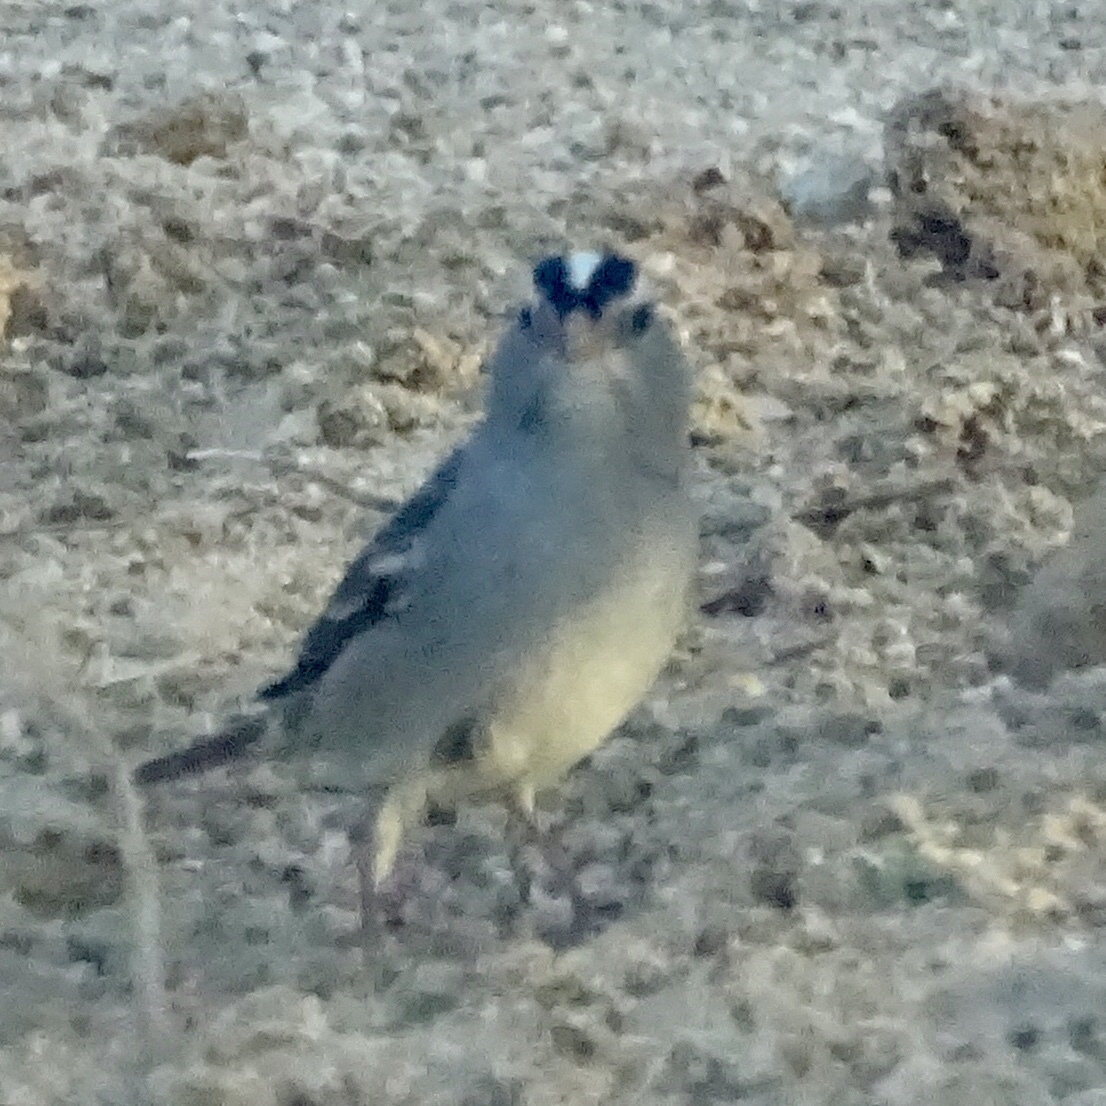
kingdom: Animalia
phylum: Chordata
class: Aves
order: Passeriformes
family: Passerellidae
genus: Zonotrichia
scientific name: Zonotrichia leucophrys
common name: White-crowned sparrow
